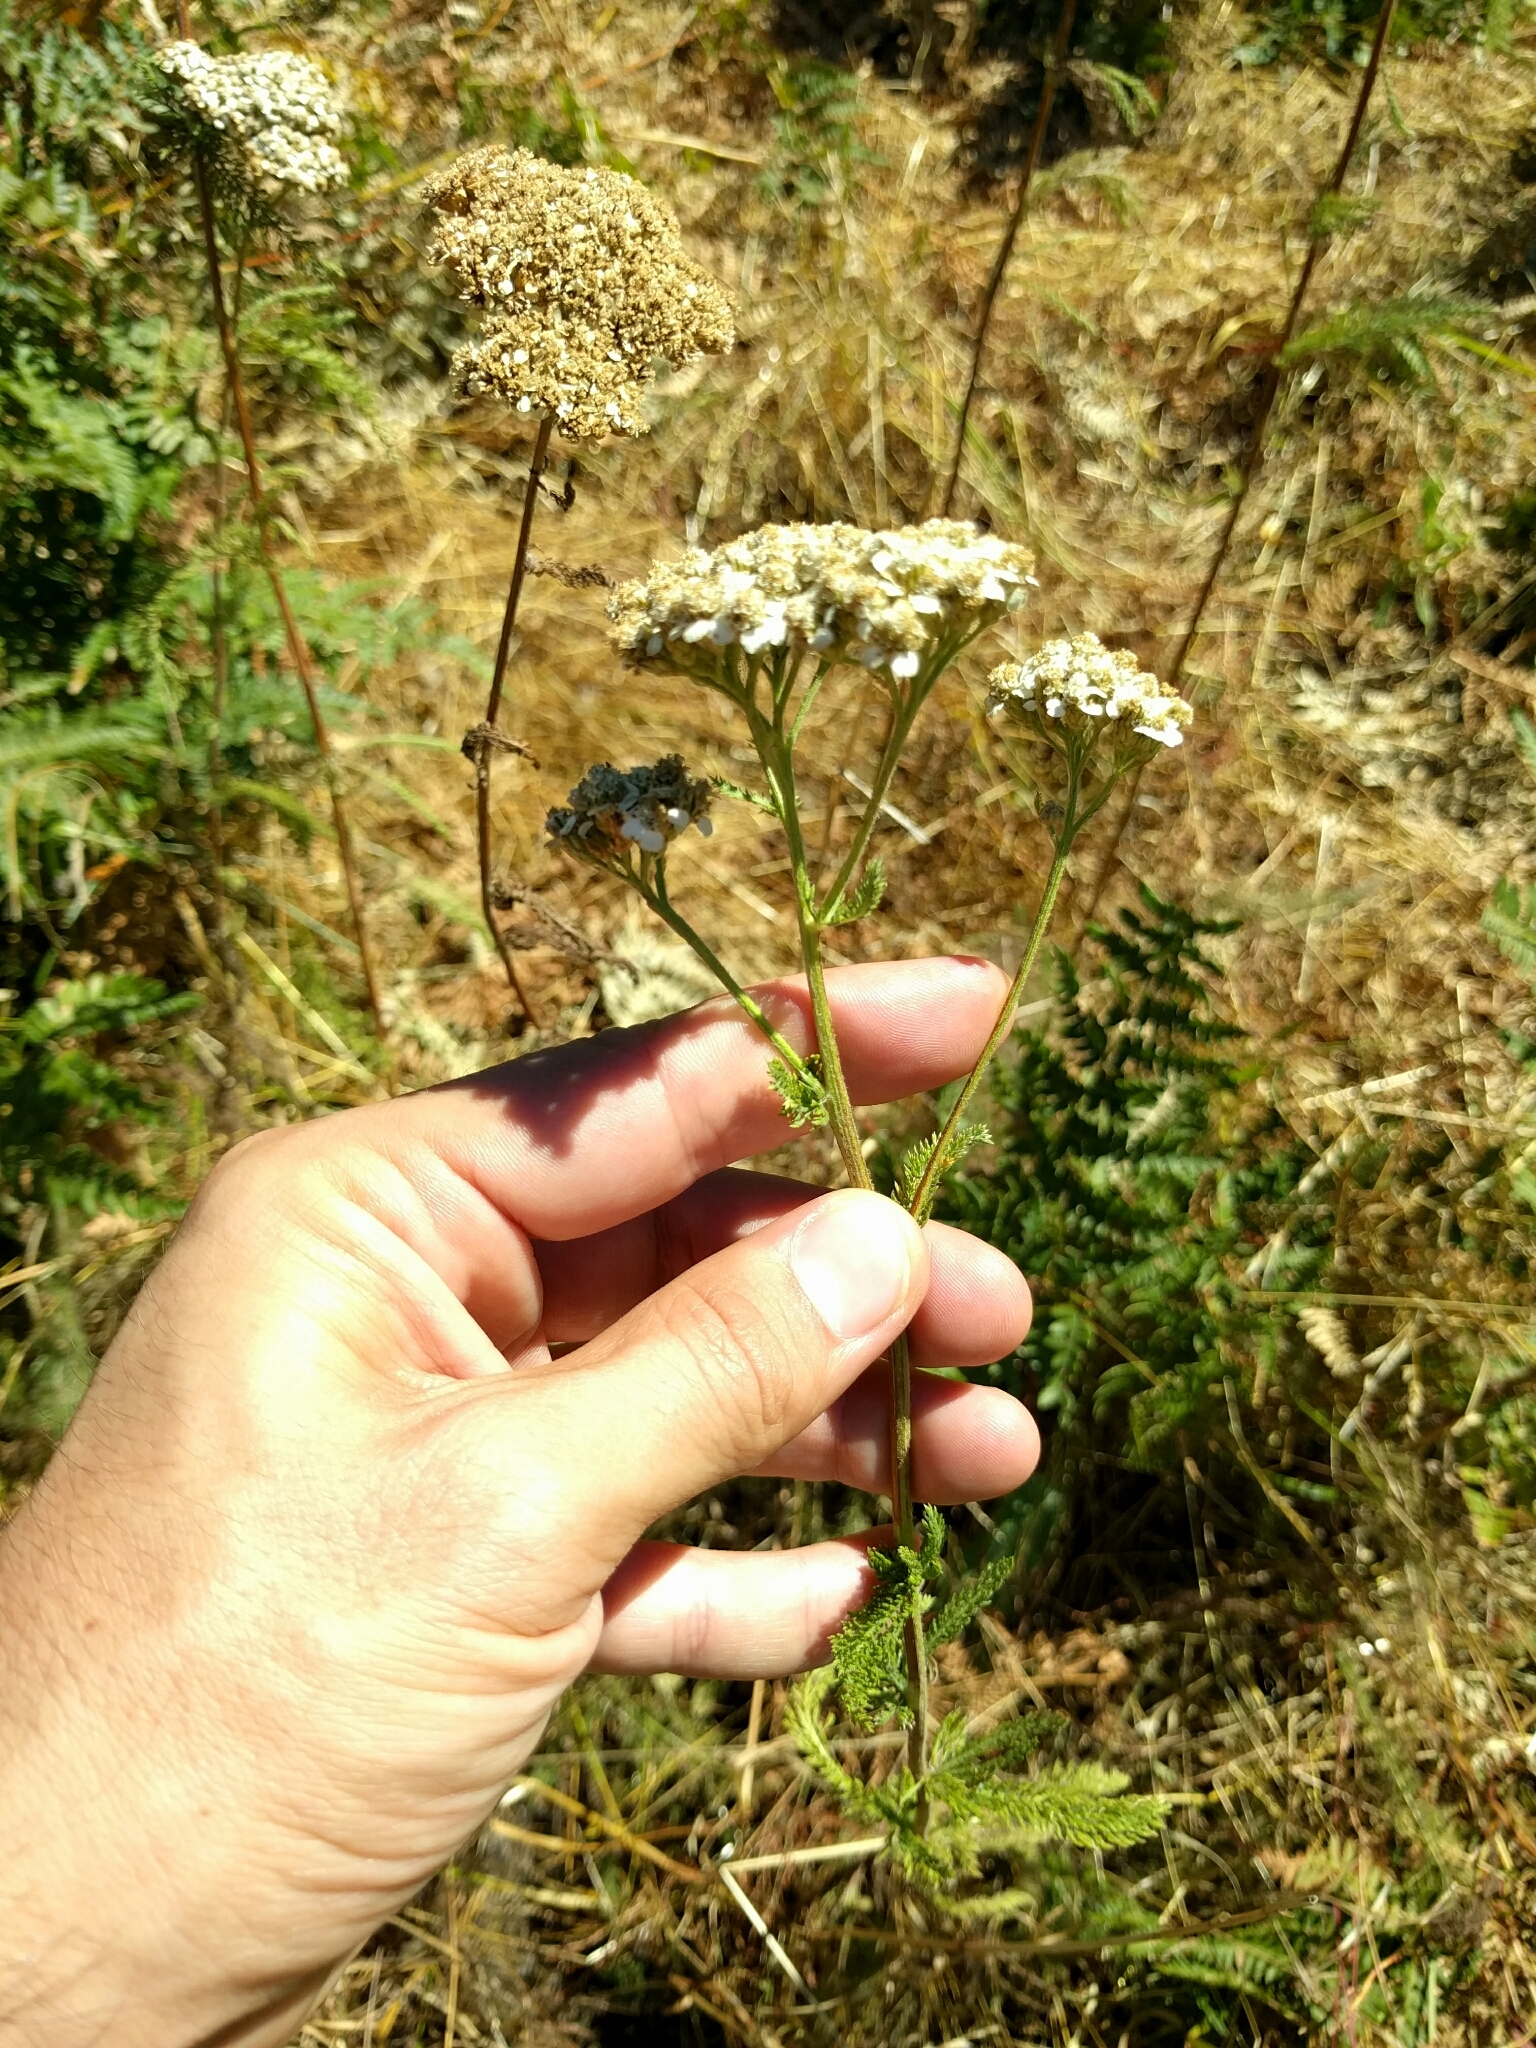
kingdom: Plantae
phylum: Tracheophyta
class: Magnoliopsida
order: Asterales
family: Asteraceae
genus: Achillea
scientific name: Achillea millefolium
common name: Yarrow
